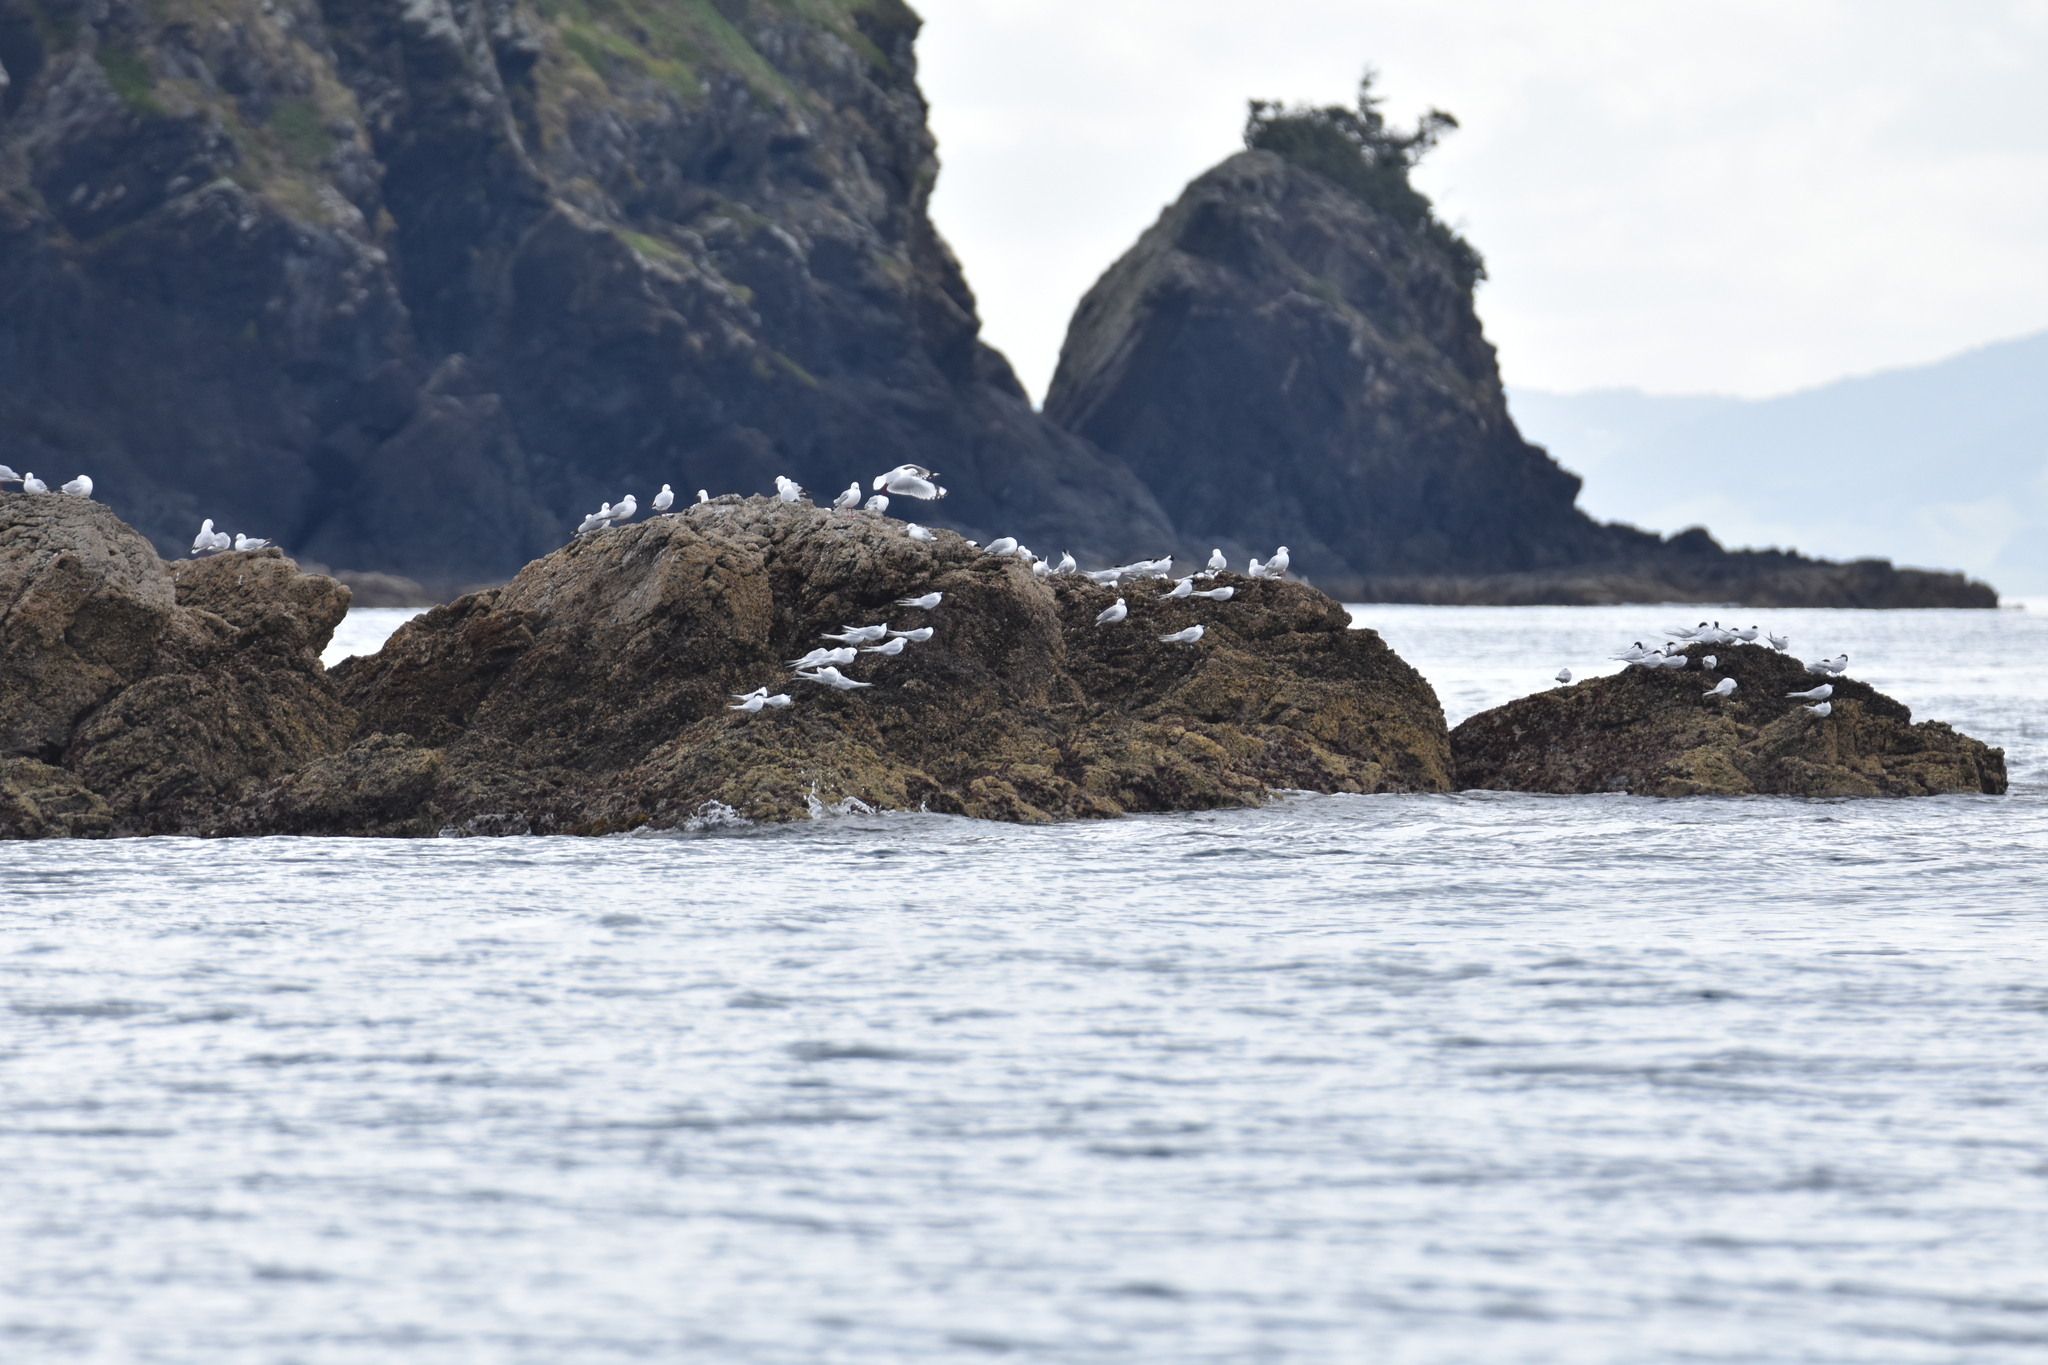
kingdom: Animalia
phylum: Chordata
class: Aves
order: Charadriiformes
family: Laridae
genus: Sterna
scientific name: Sterna striata
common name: White-fronted tern
